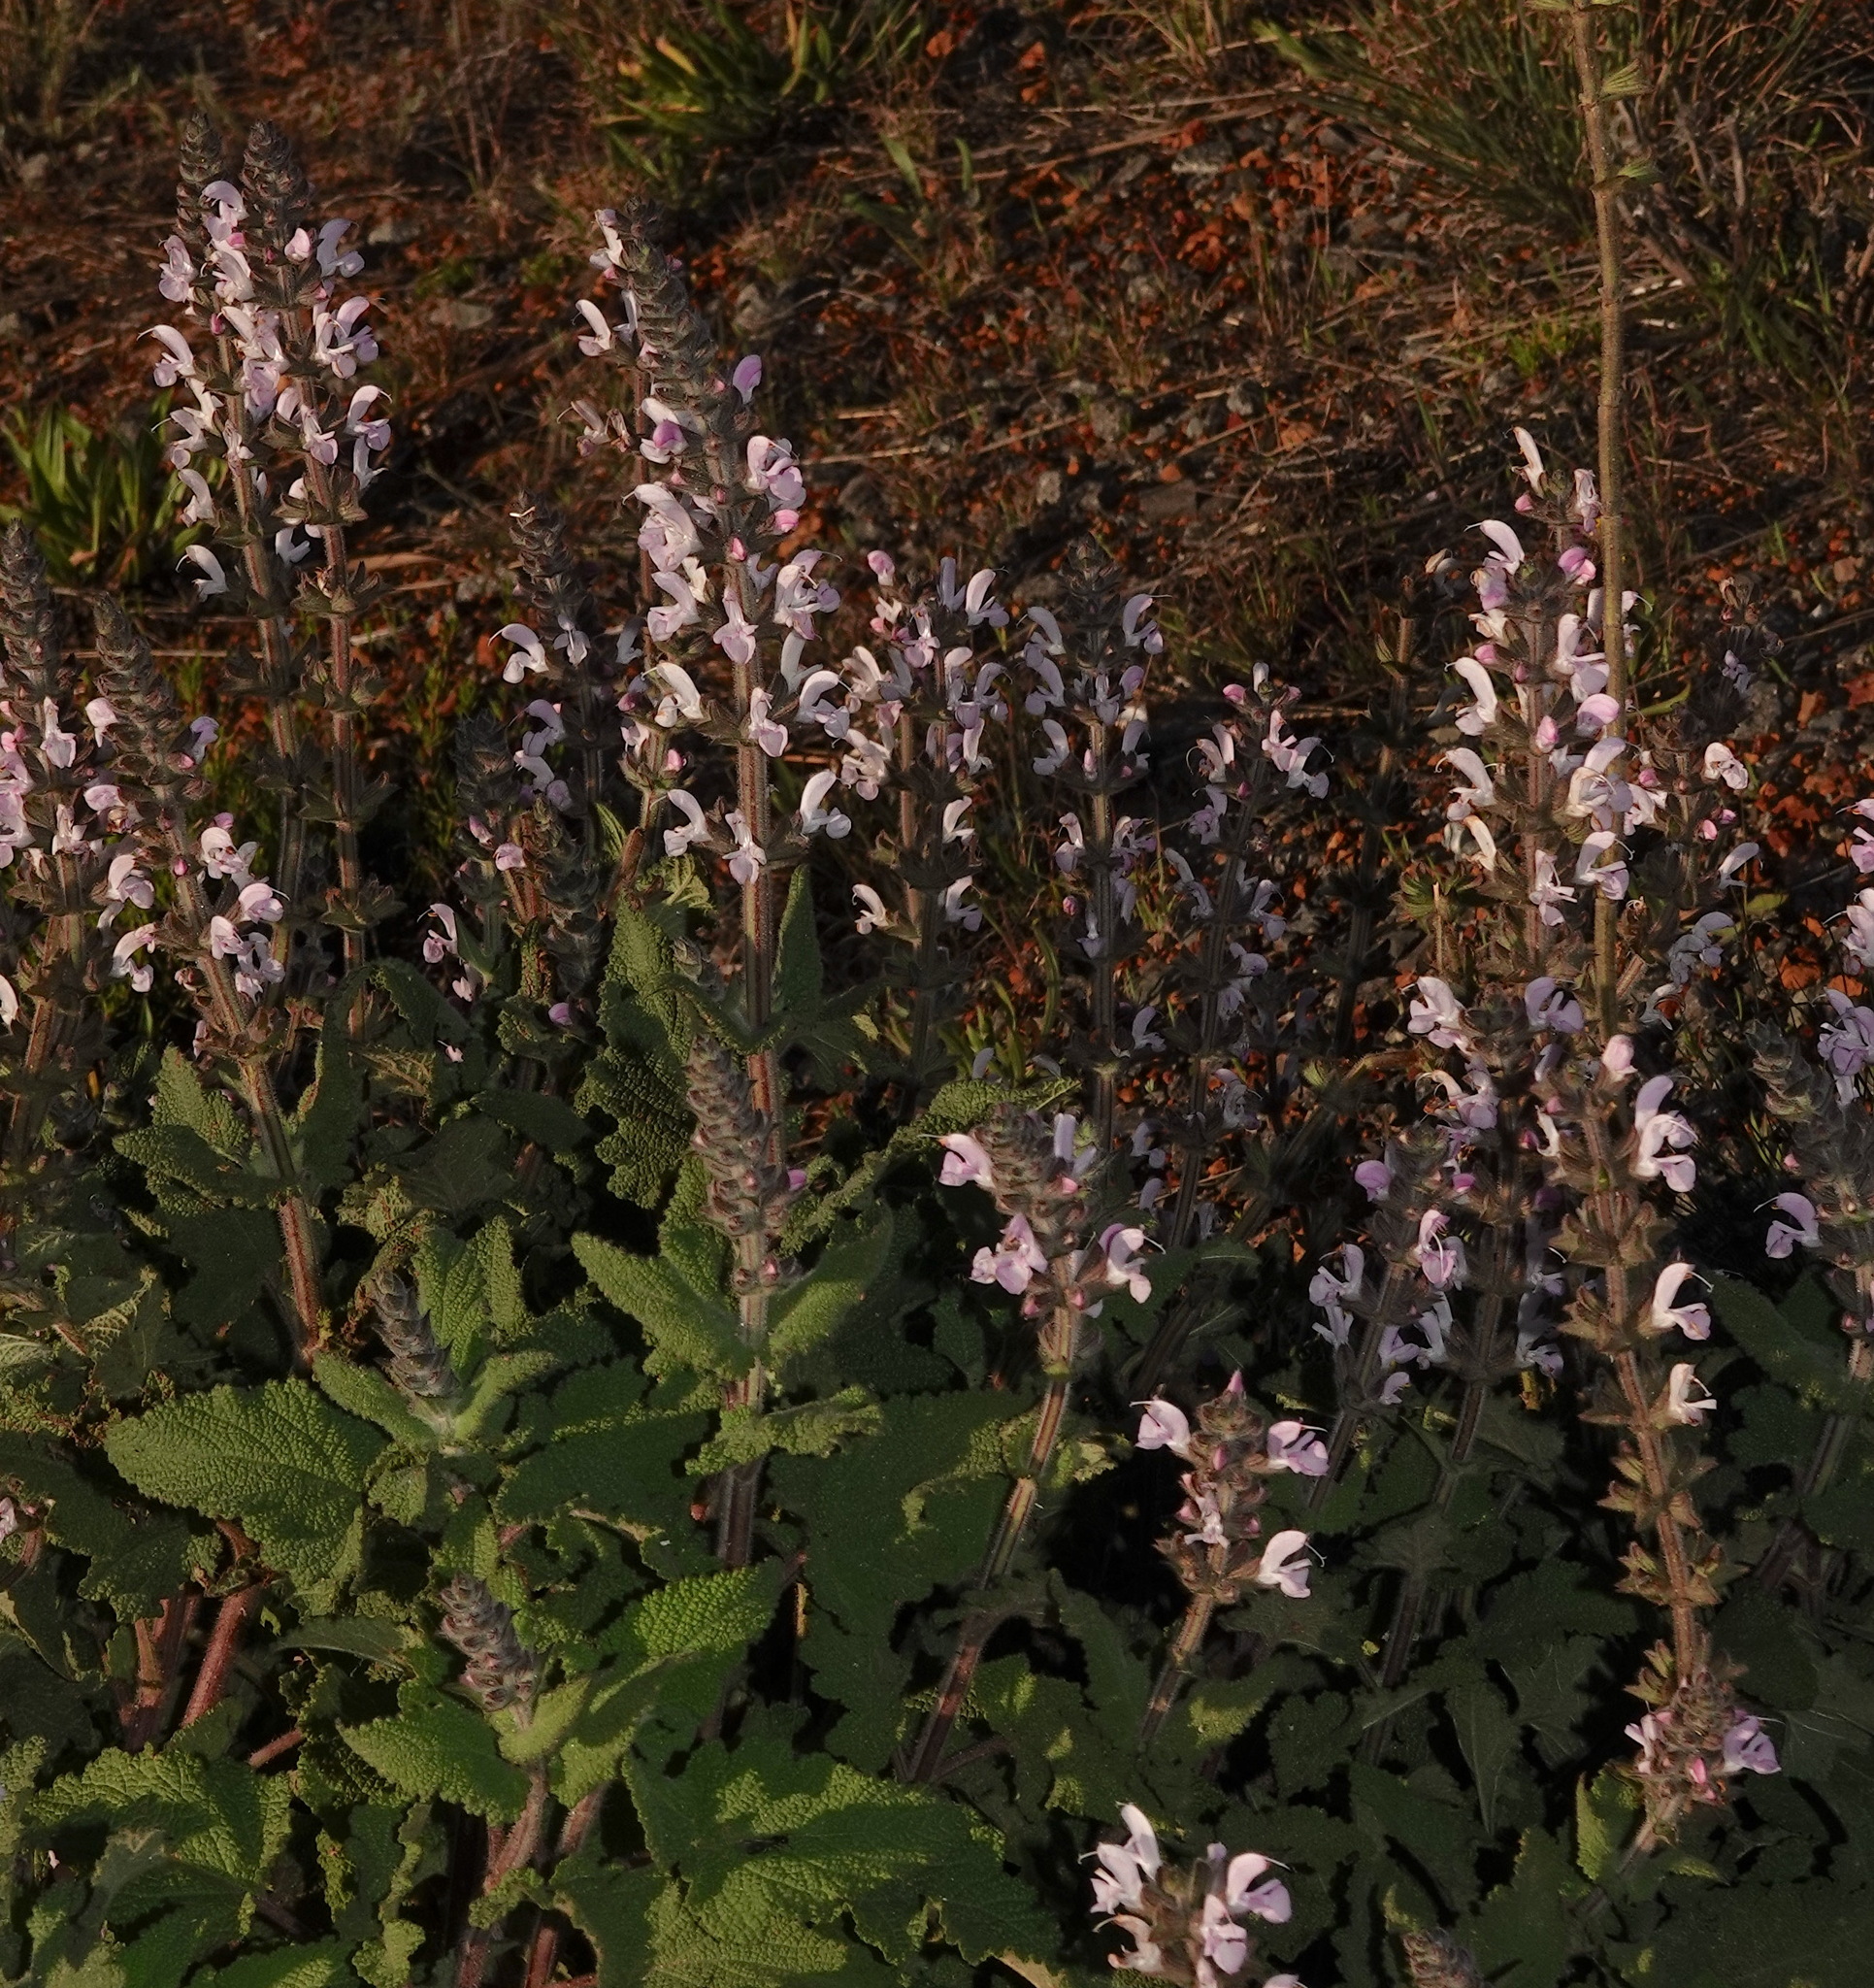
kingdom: Plantae
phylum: Tracheophyta
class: Magnoliopsida
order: Lamiales
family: Lamiaceae
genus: Salvia
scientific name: Salvia disermas
